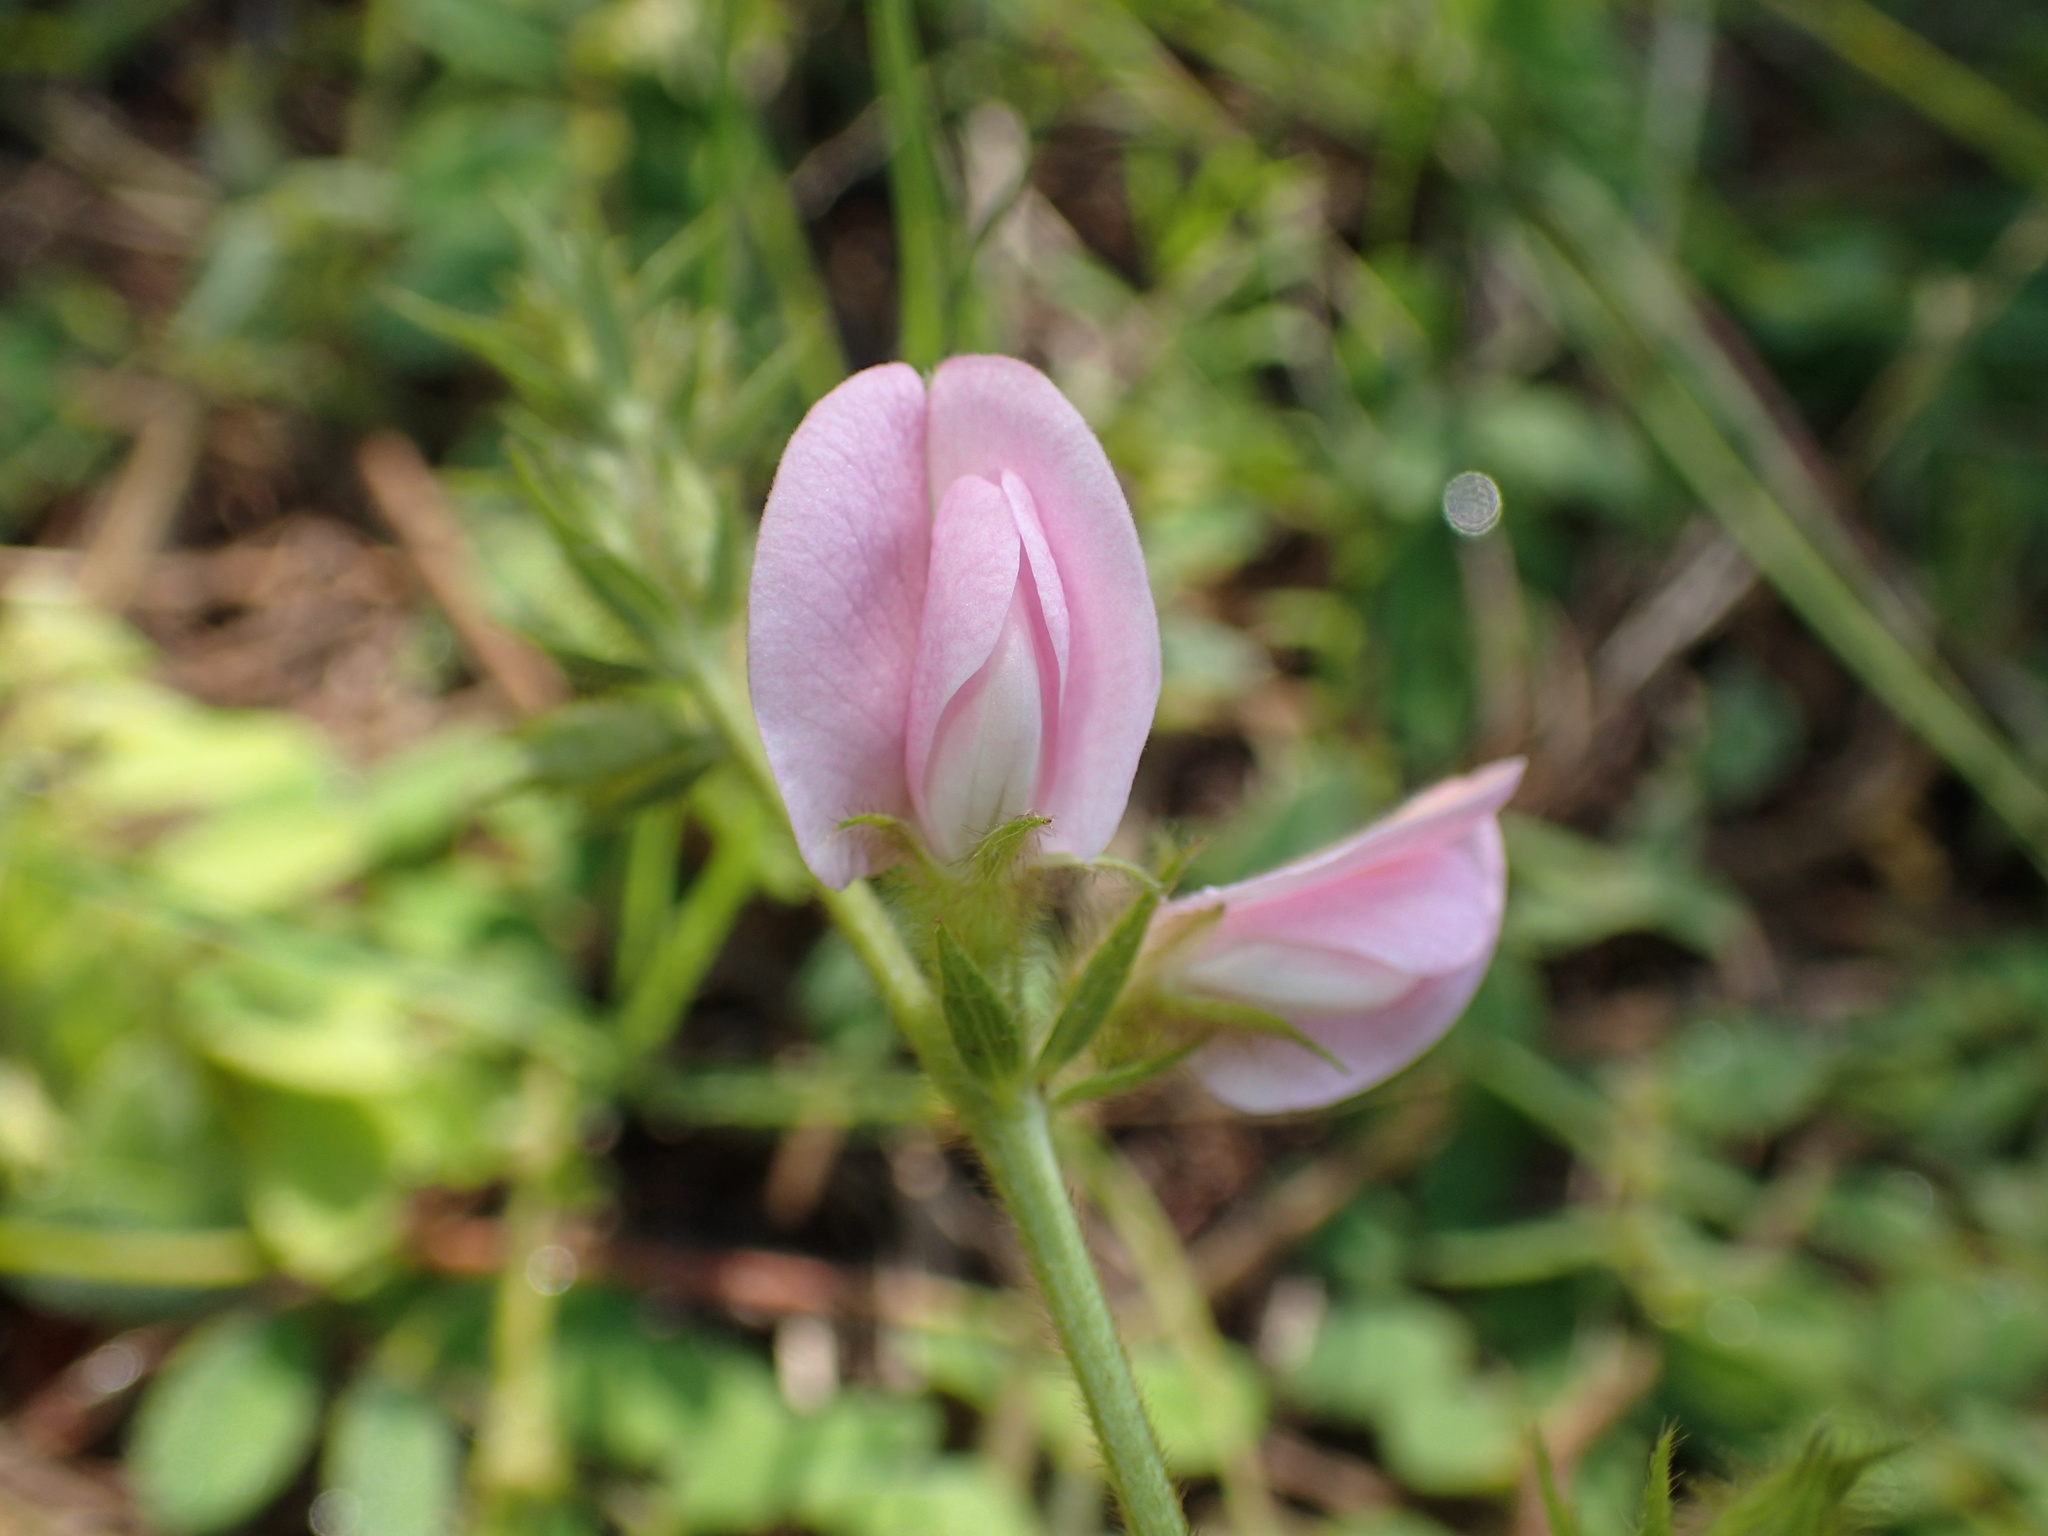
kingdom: Plantae
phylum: Tracheophyta
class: Magnoliopsida
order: Fabales
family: Fabaceae
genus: Tephrosia
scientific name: Tephrosia spicata
